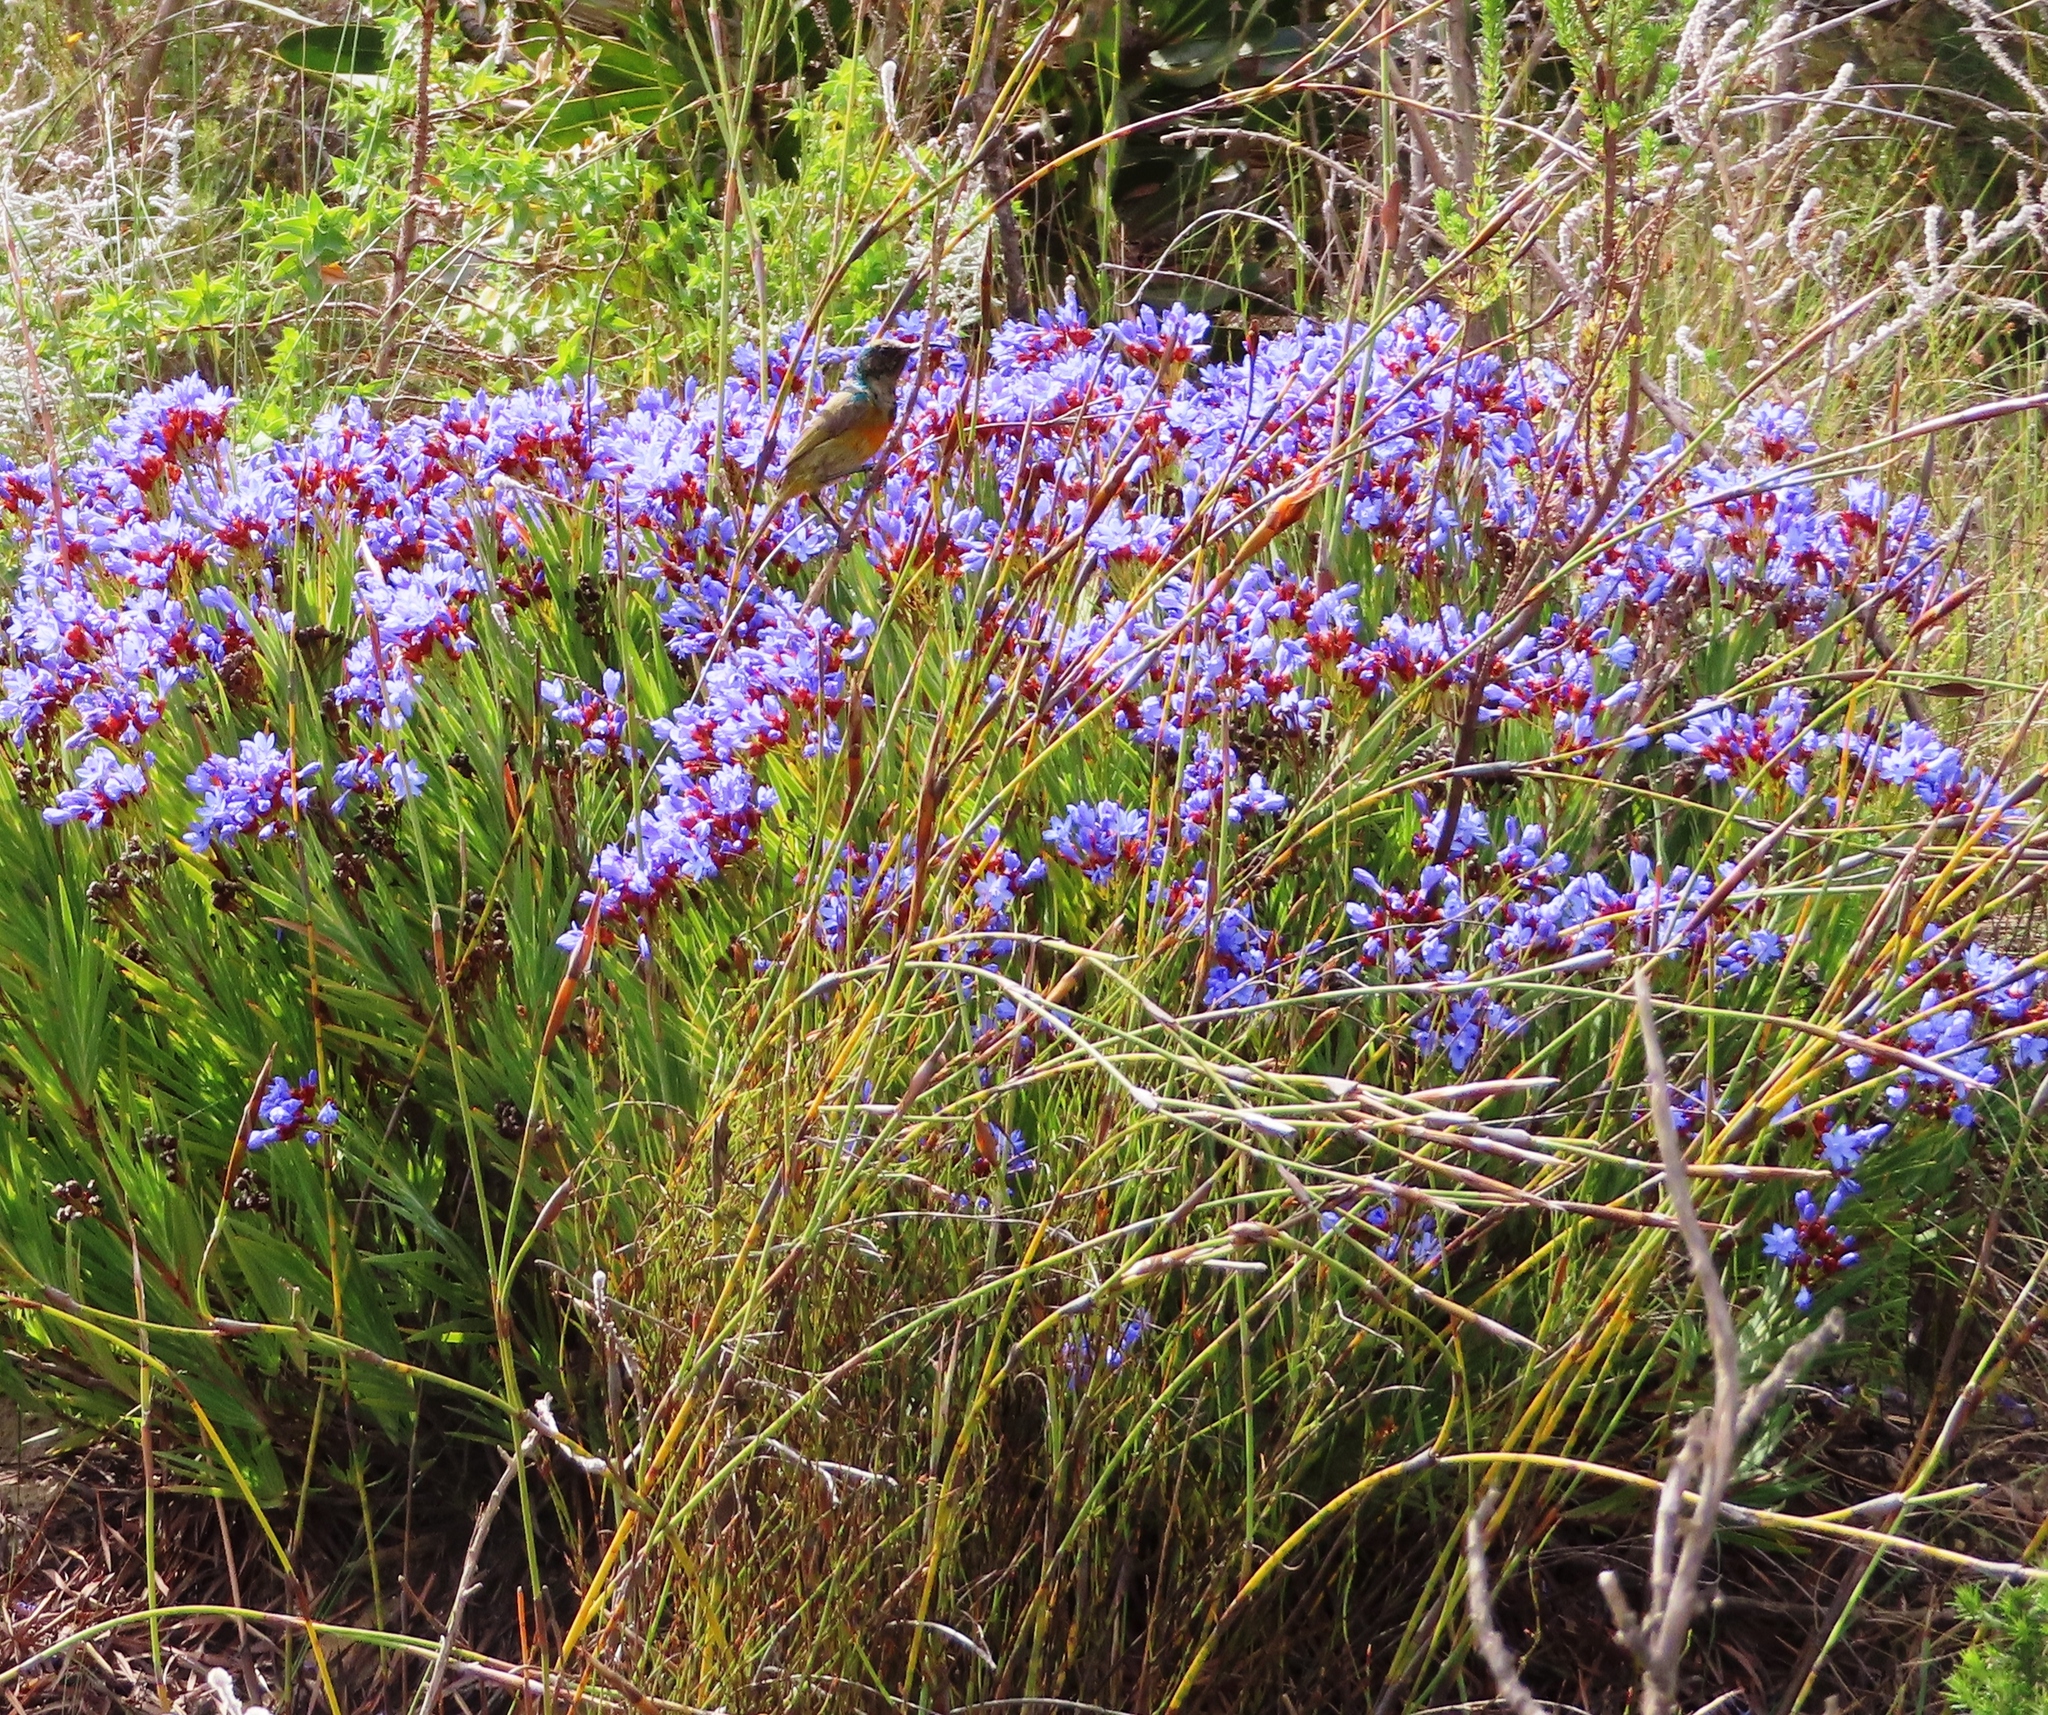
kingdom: Animalia
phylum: Chordata
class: Aves
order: Passeriformes
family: Nectariniidae
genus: Anthobaphes
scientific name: Anthobaphes violacea
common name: Orange-breasted sunbird
